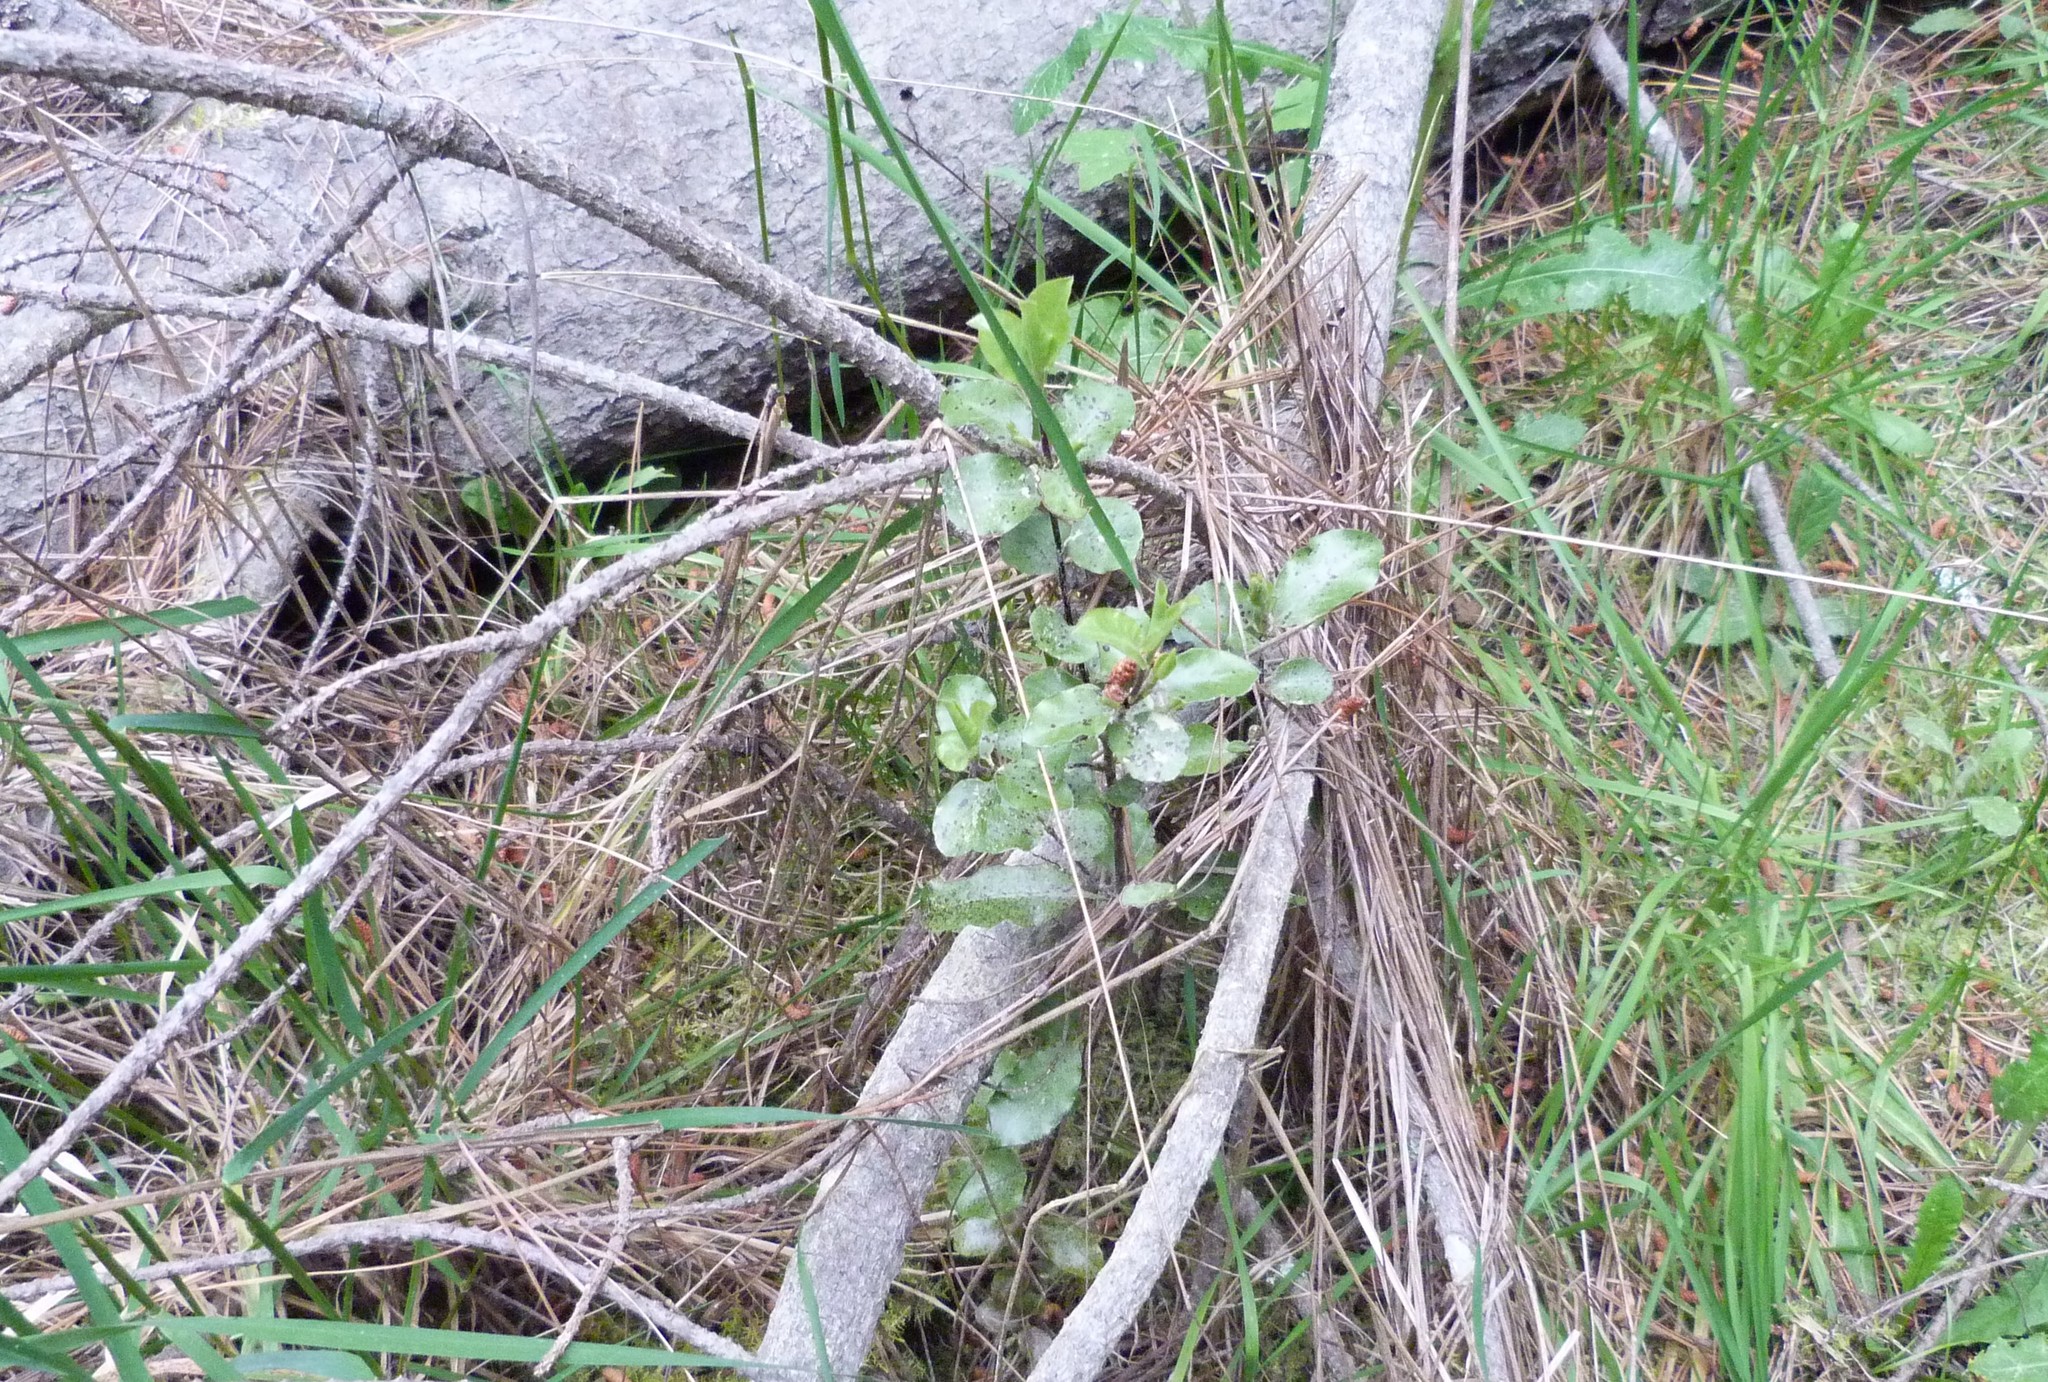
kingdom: Plantae
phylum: Tracheophyta
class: Magnoliopsida
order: Apiales
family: Pittosporaceae
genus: Pittosporum
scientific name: Pittosporum tenuifolium
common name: Kohuhu
